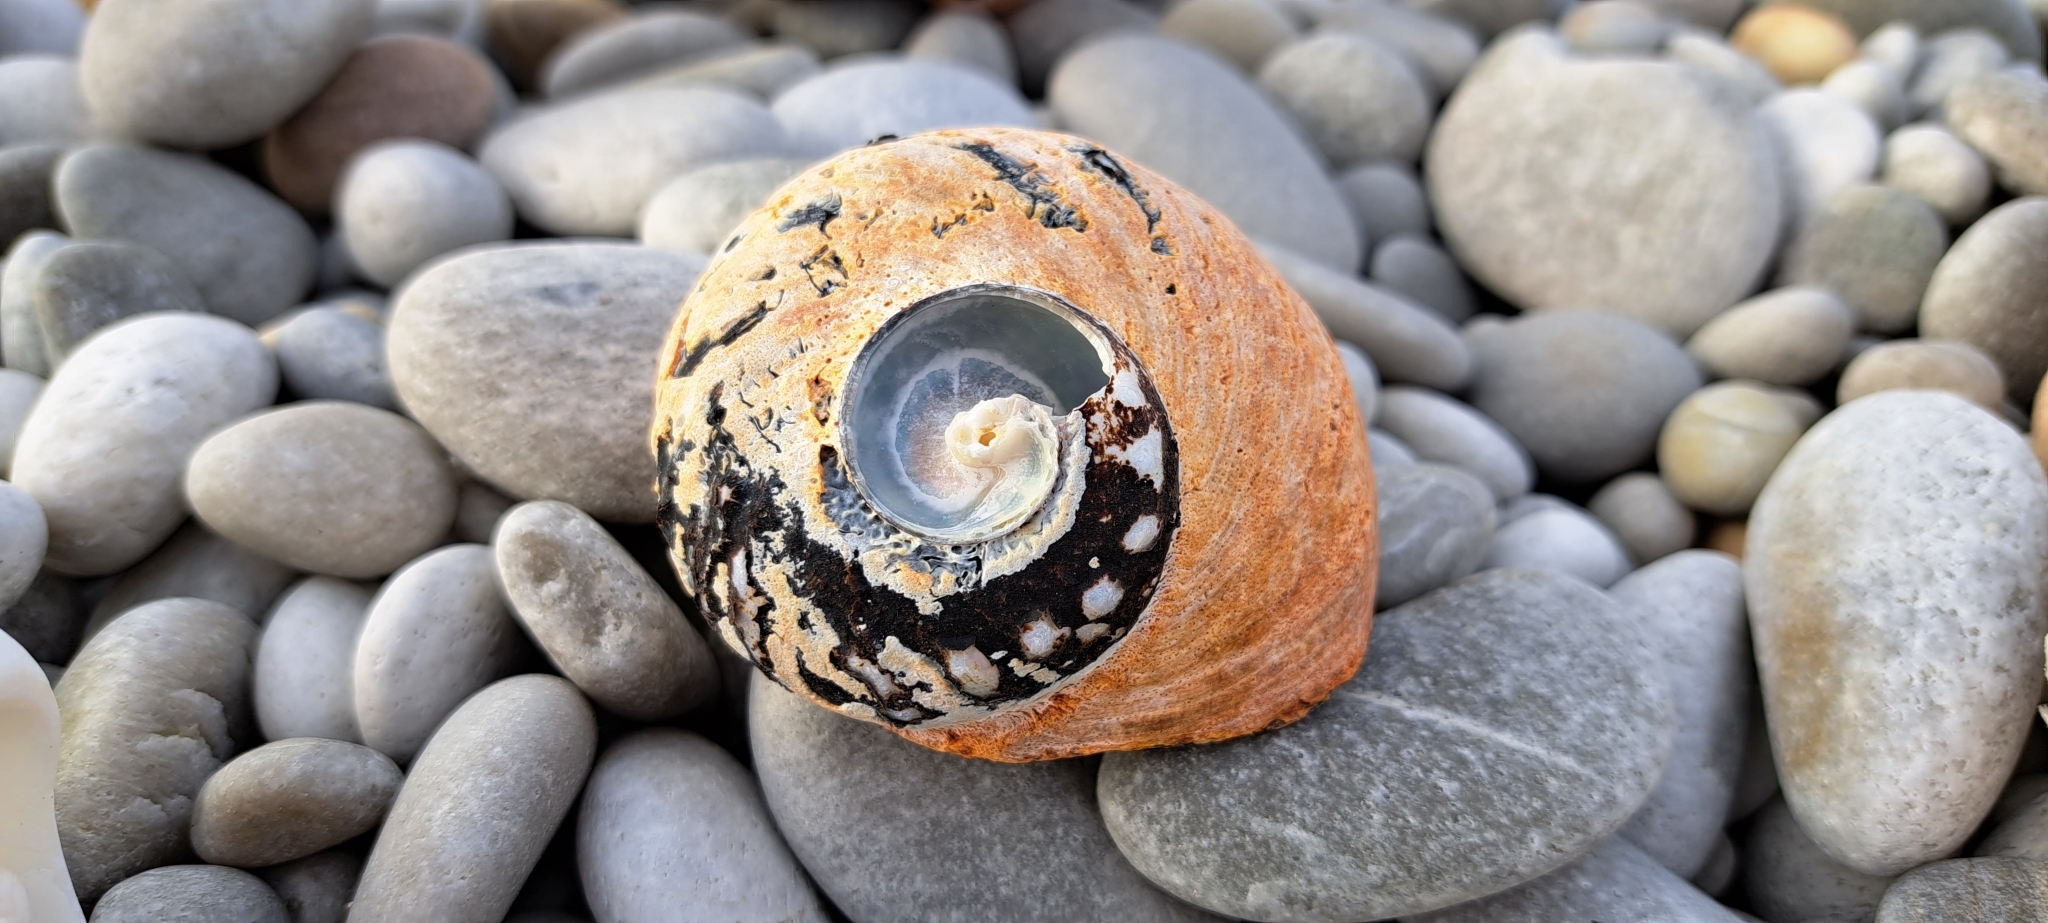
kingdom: Animalia
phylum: Mollusca
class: Gastropoda
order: Trochida
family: Turbinidae
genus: Turbo
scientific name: Turbo sarmaticus
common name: South african turban
